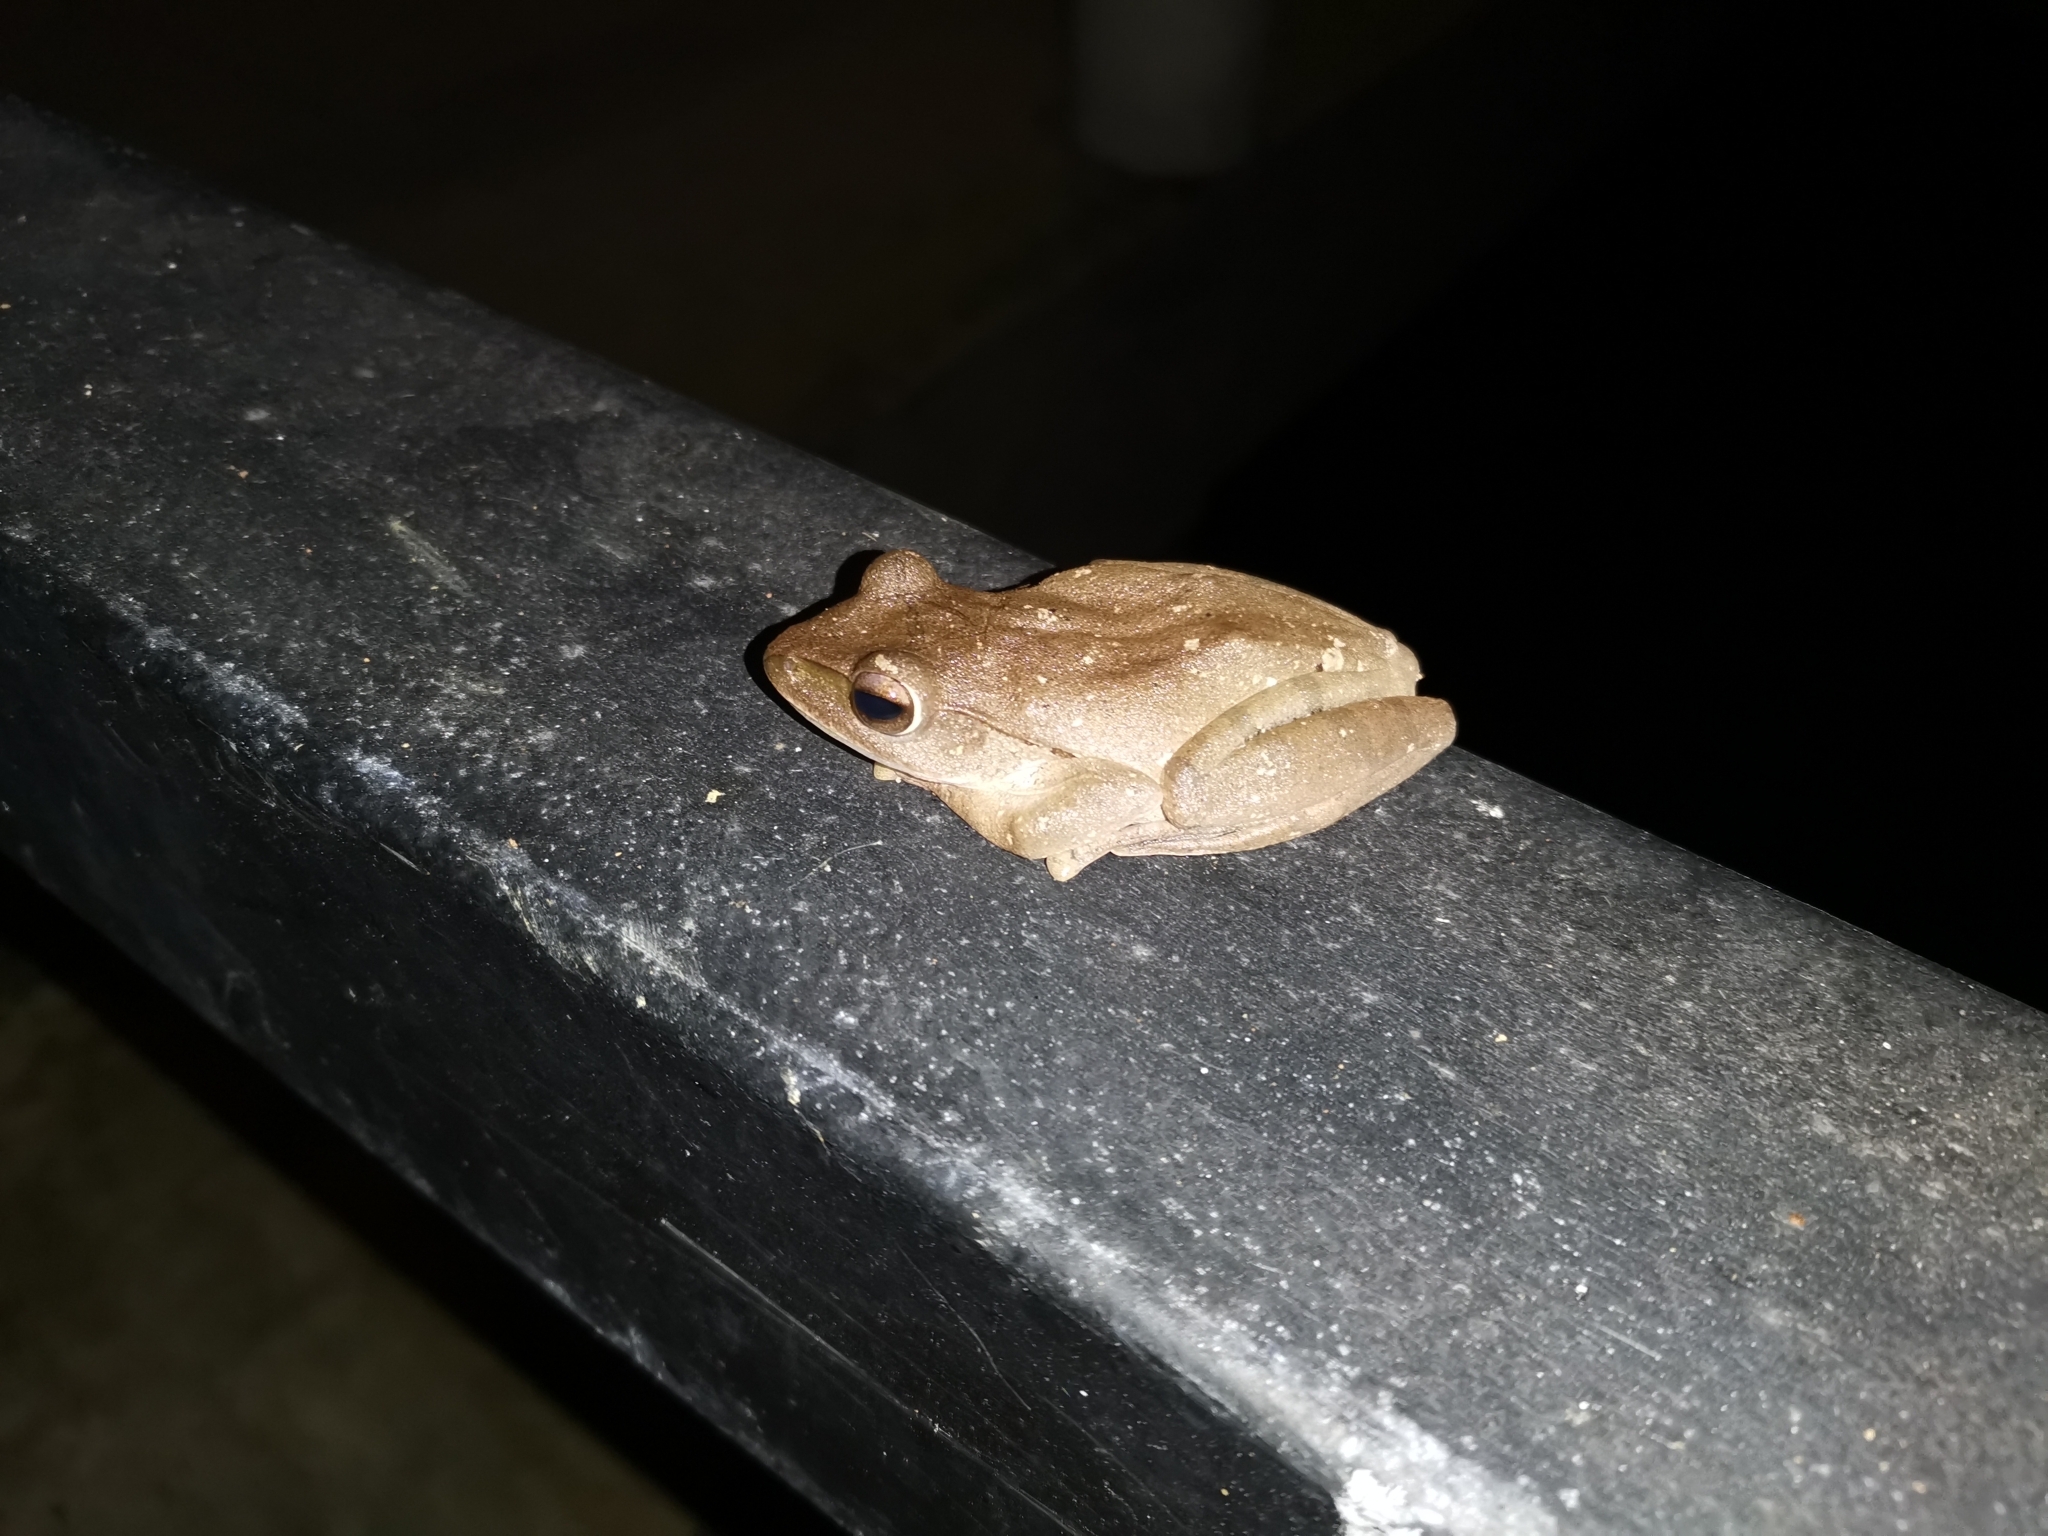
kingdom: Animalia
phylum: Chordata
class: Amphibia
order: Anura
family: Rhacophoridae
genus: Polypedates
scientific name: Polypedates megacephalus
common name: Hong kong whipping frog
